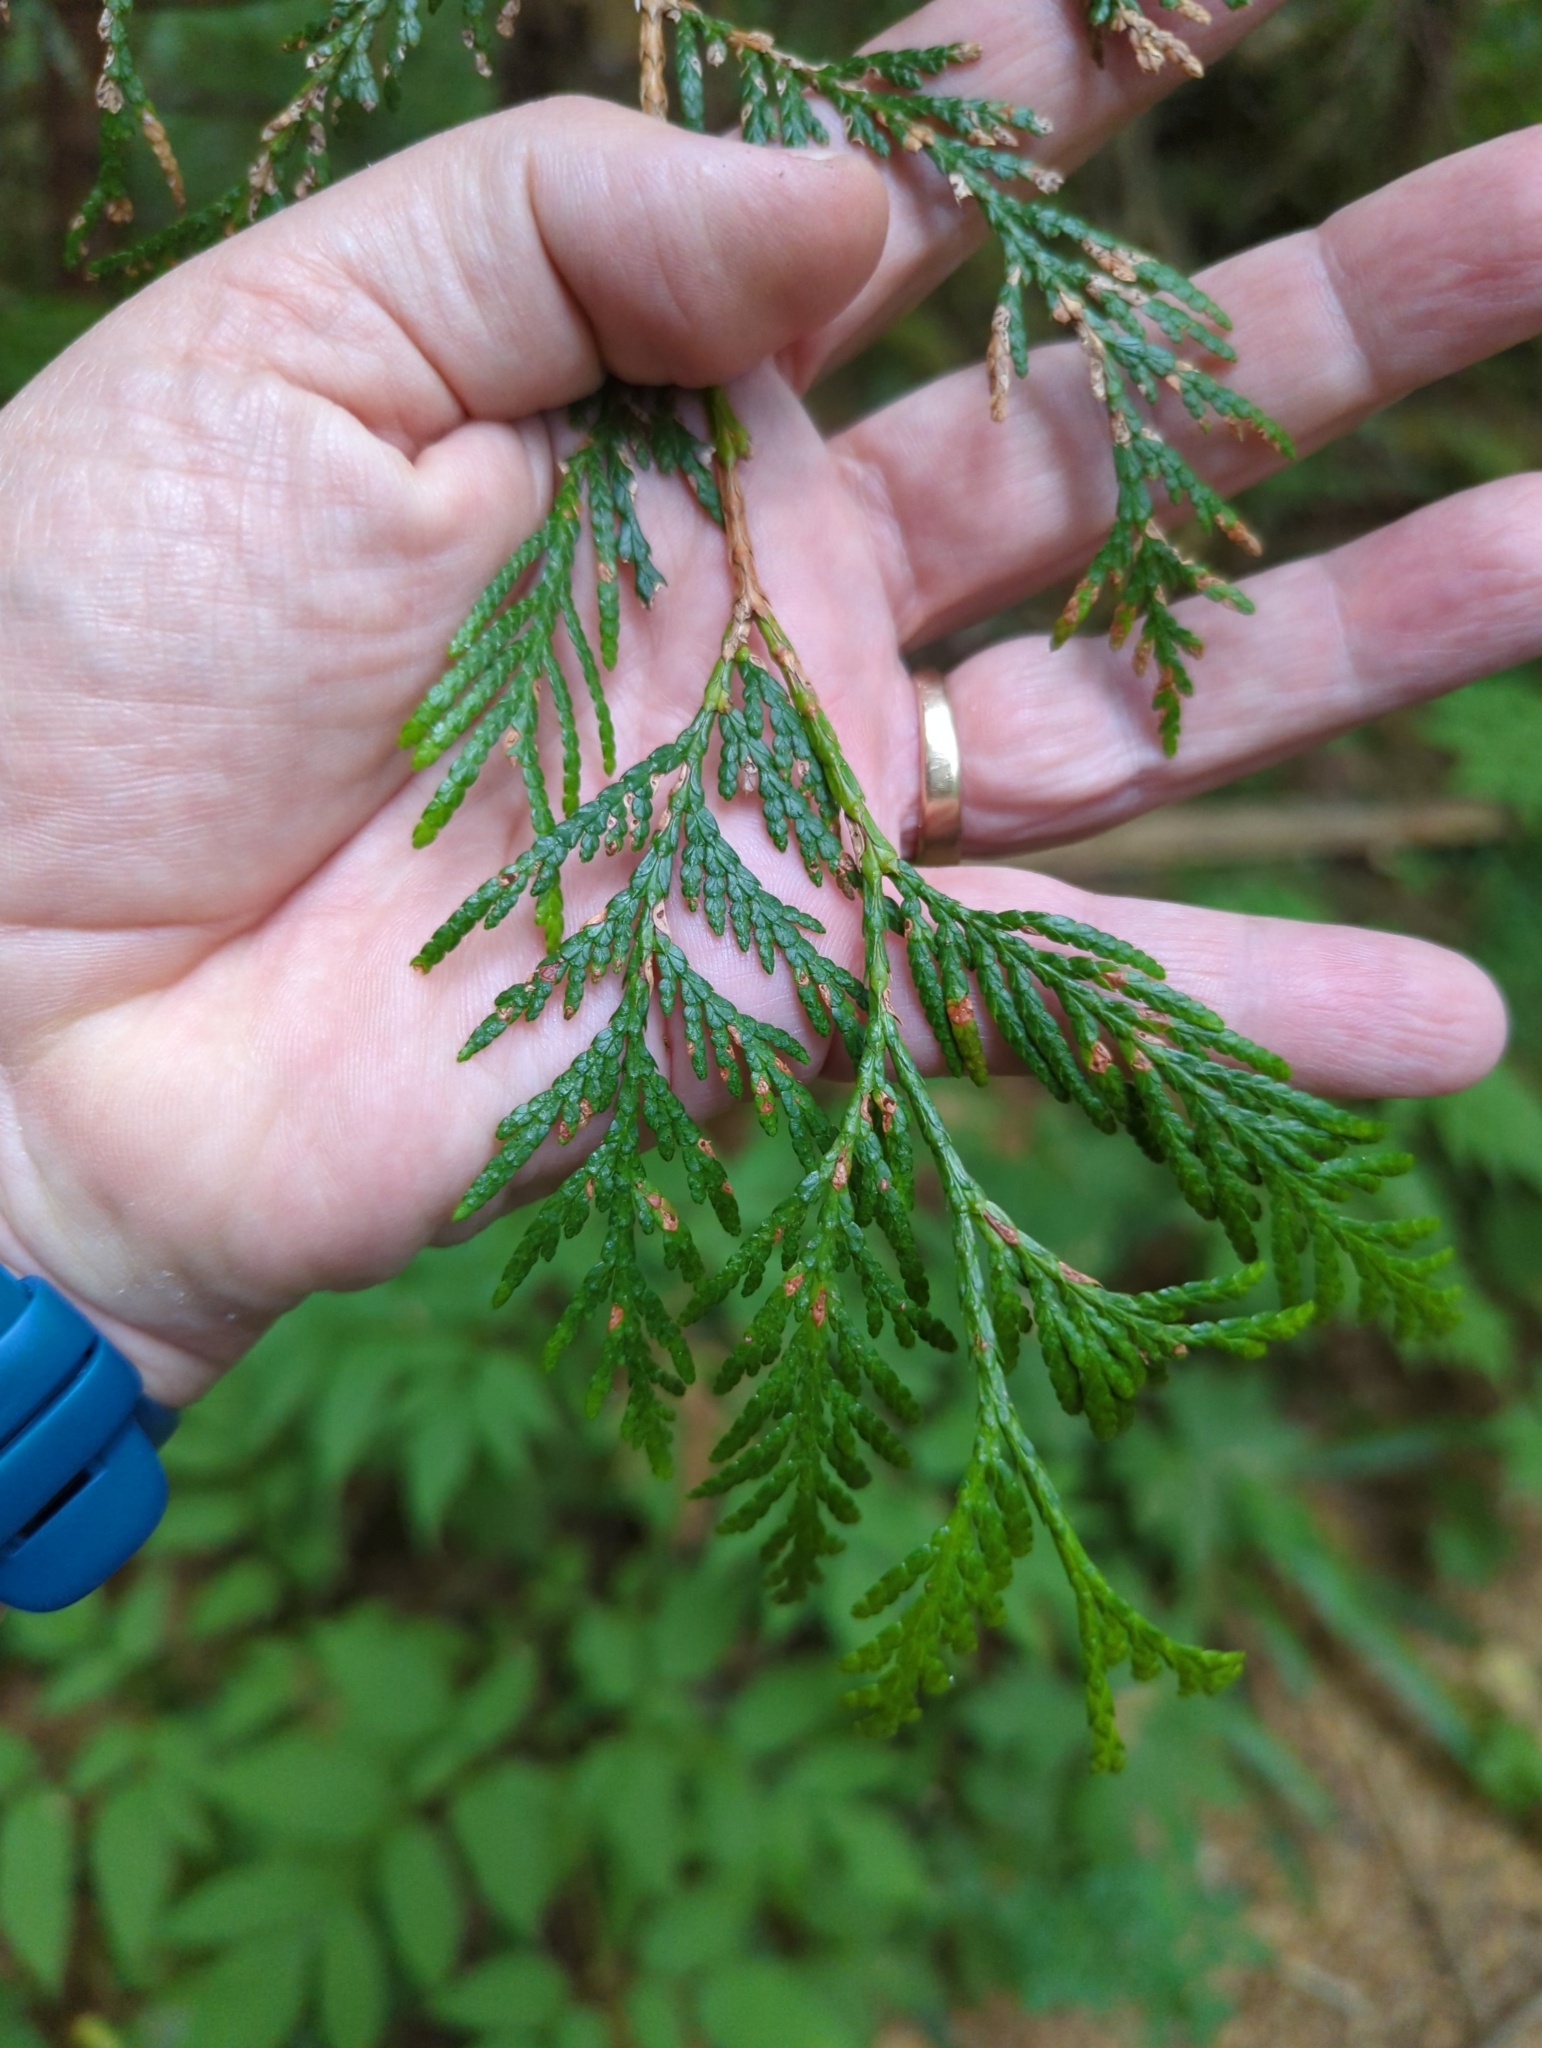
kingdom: Plantae
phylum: Tracheophyta
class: Pinopsida
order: Pinales
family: Cupressaceae
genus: Thuja
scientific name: Thuja plicata
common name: Western red-cedar
